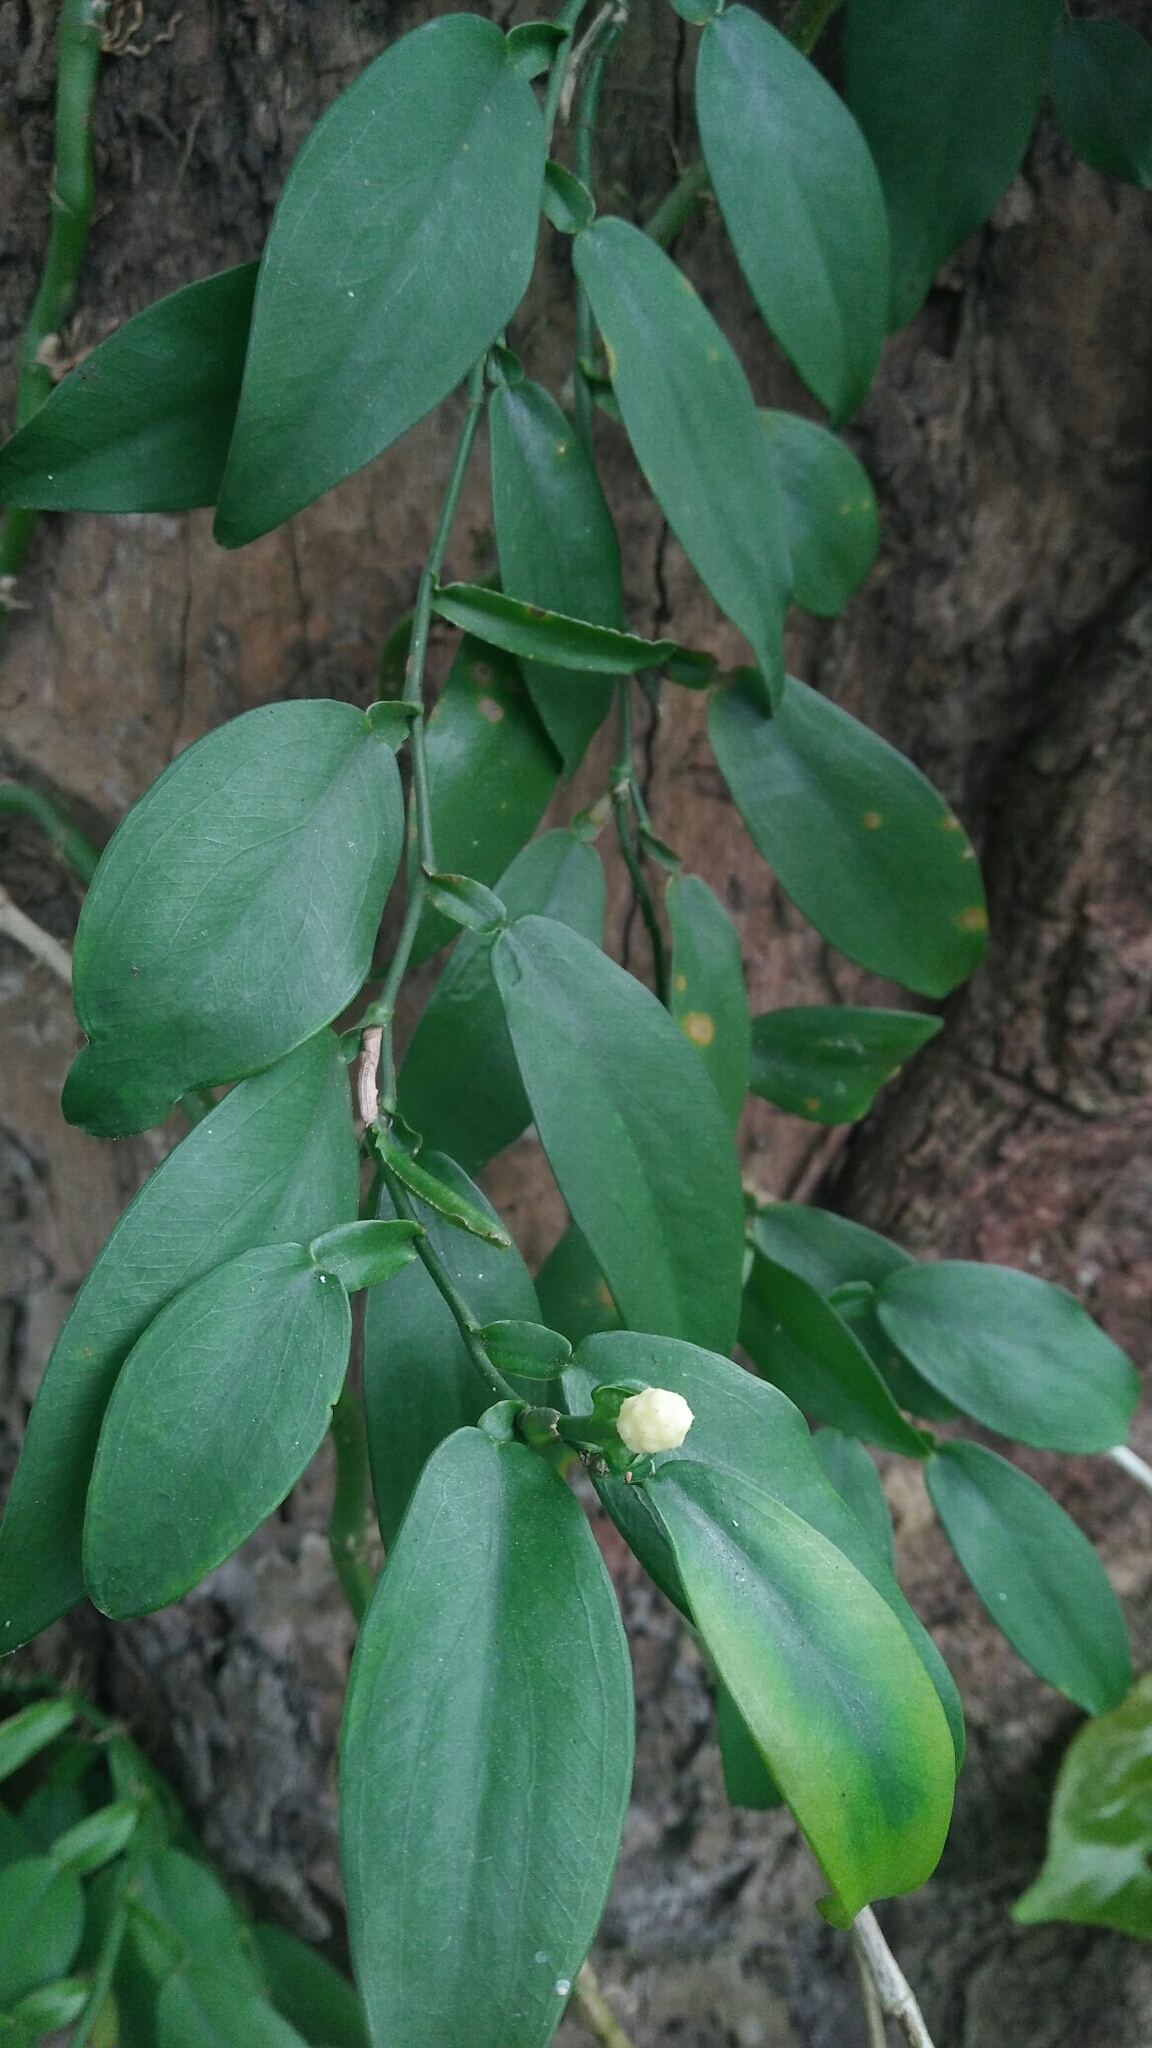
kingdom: Plantae
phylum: Tracheophyta
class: Liliopsida
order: Alismatales
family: Araceae
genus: Pothos
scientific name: Pothos chinensis
